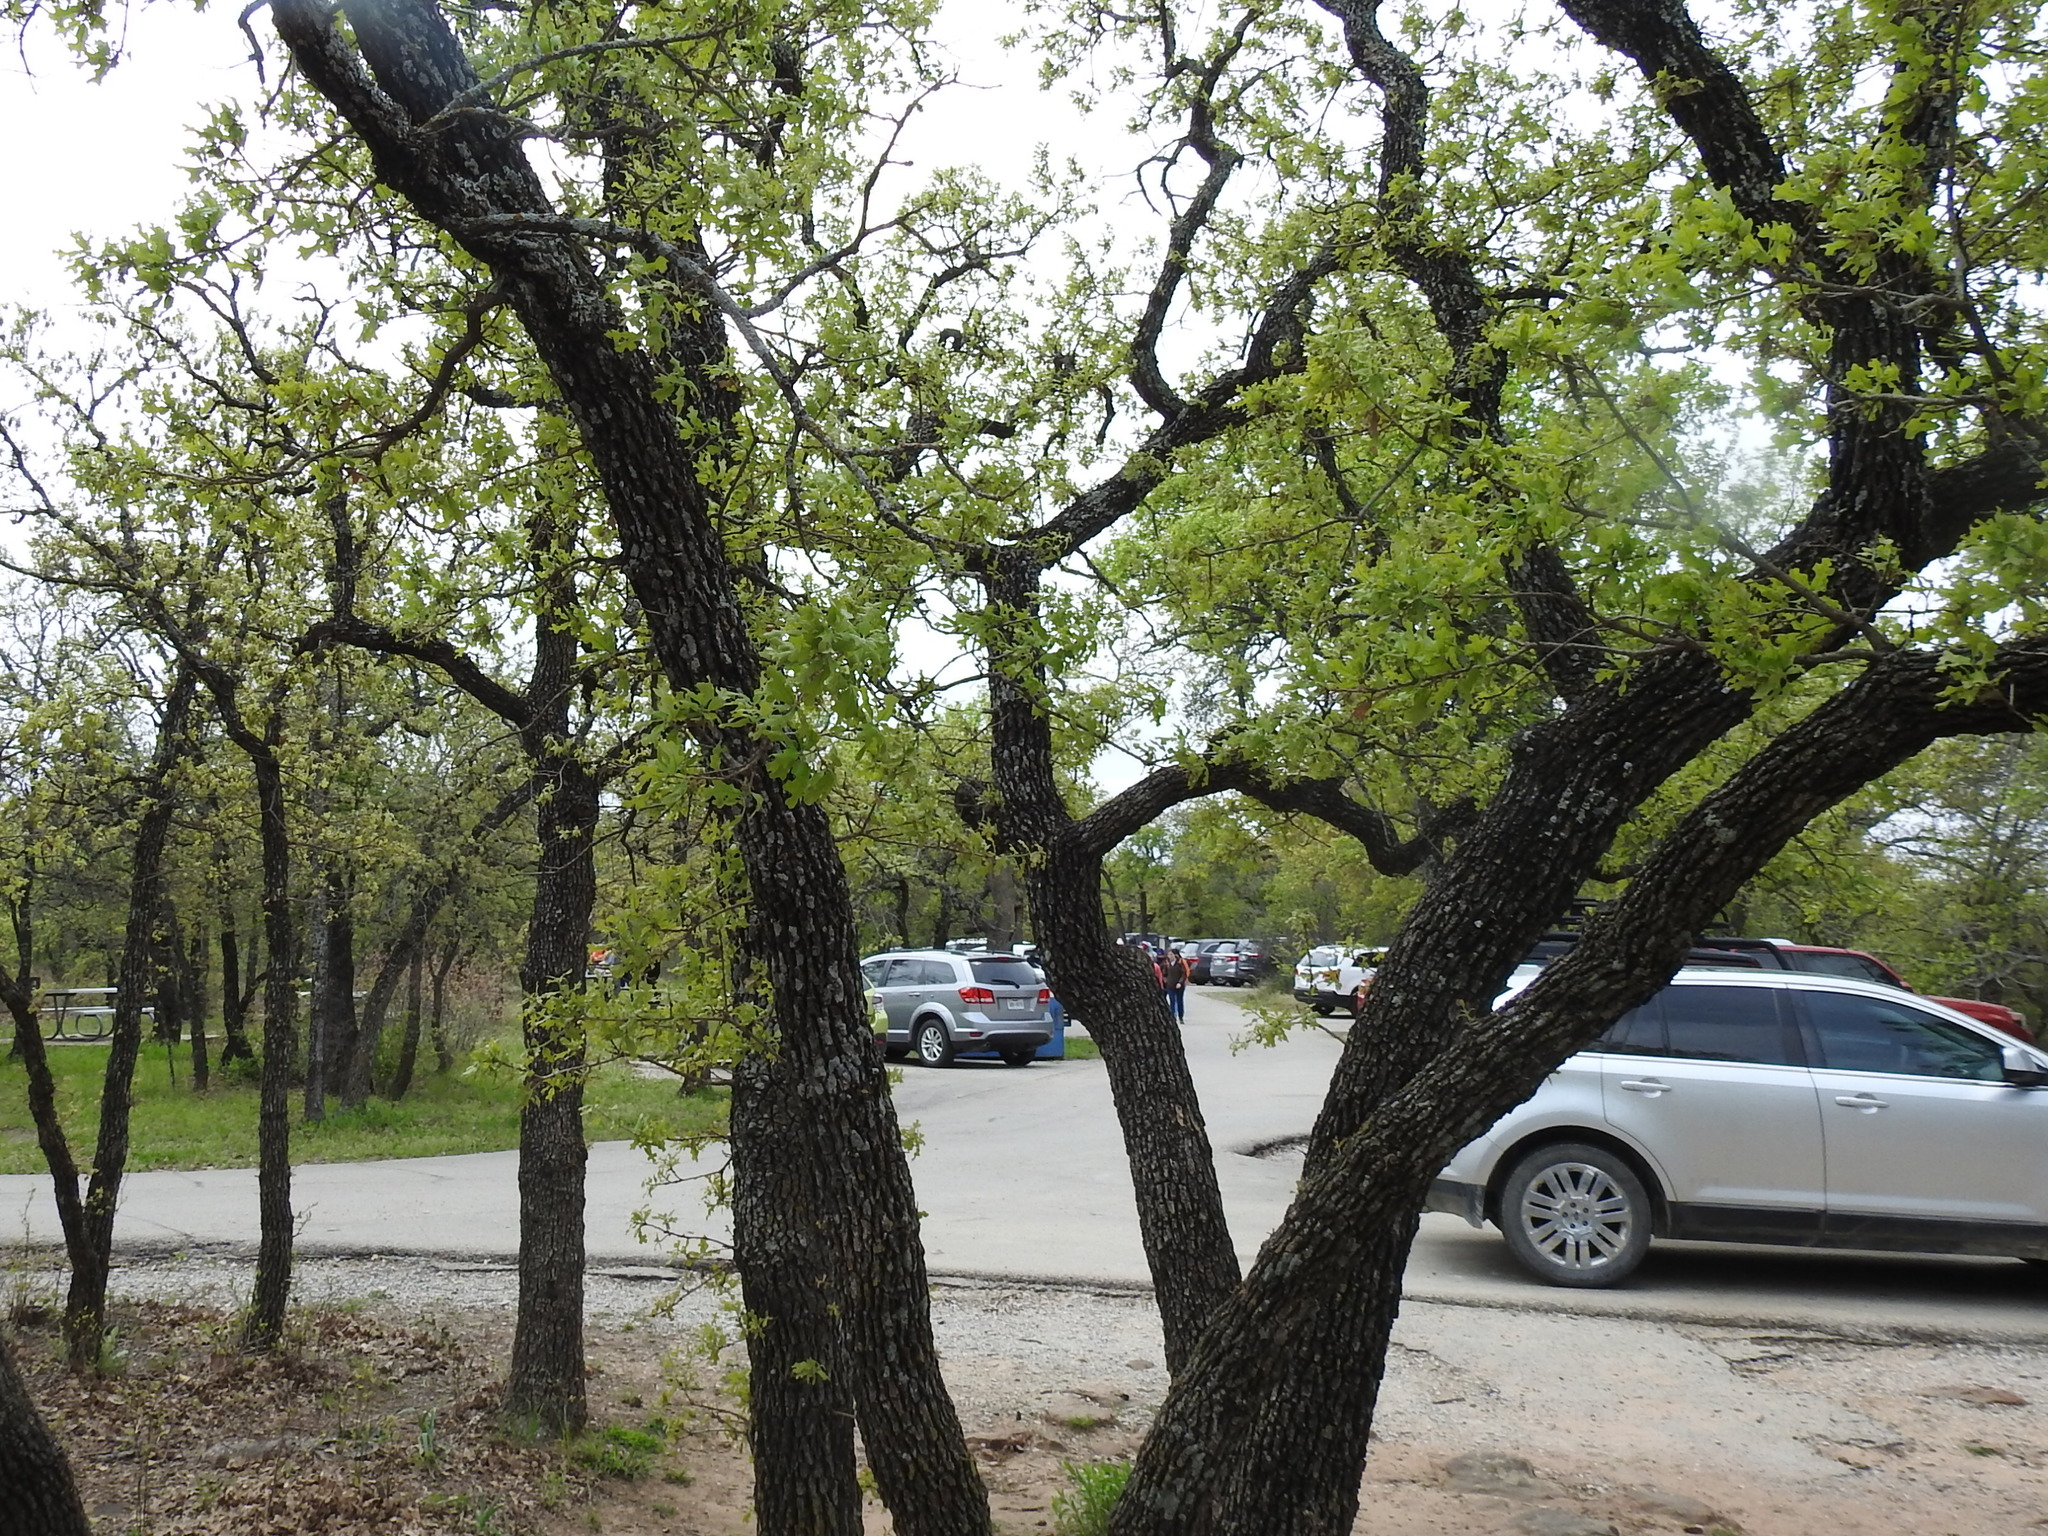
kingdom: Plantae
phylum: Tracheophyta
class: Magnoliopsida
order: Fagales
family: Fagaceae
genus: Quercus
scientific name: Quercus stellata
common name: Post oak
